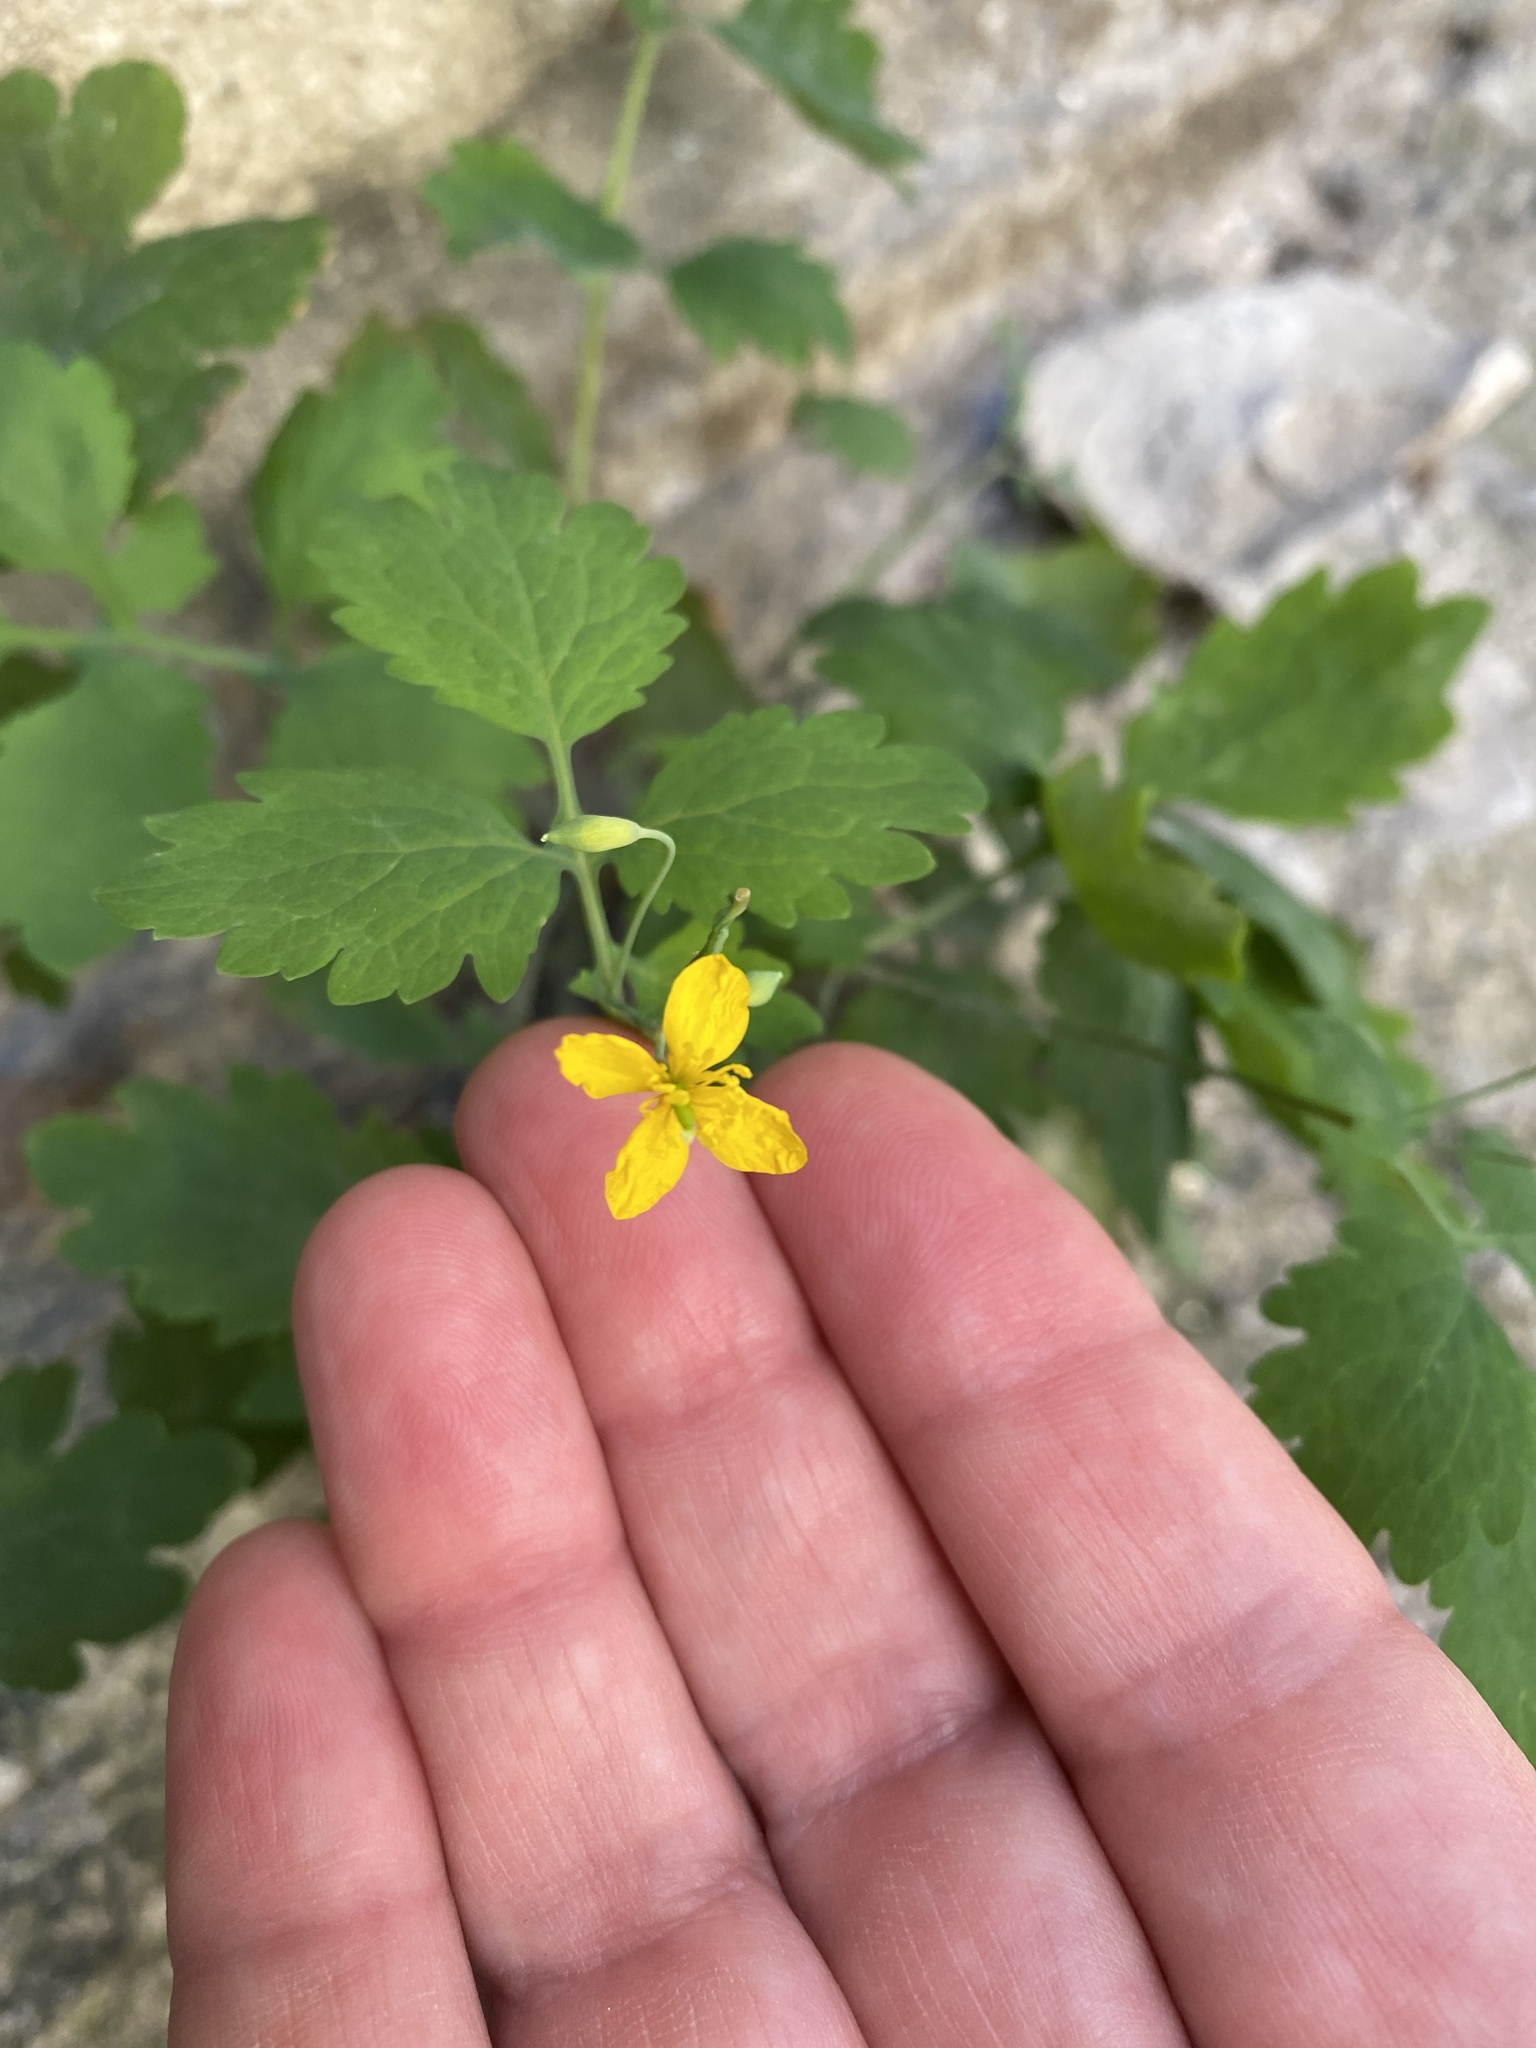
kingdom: Plantae
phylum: Tracheophyta
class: Magnoliopsida
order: Ranunculales
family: Papaveraceae
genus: Chelidonium
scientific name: Chelidonium majus
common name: Greater celandine
